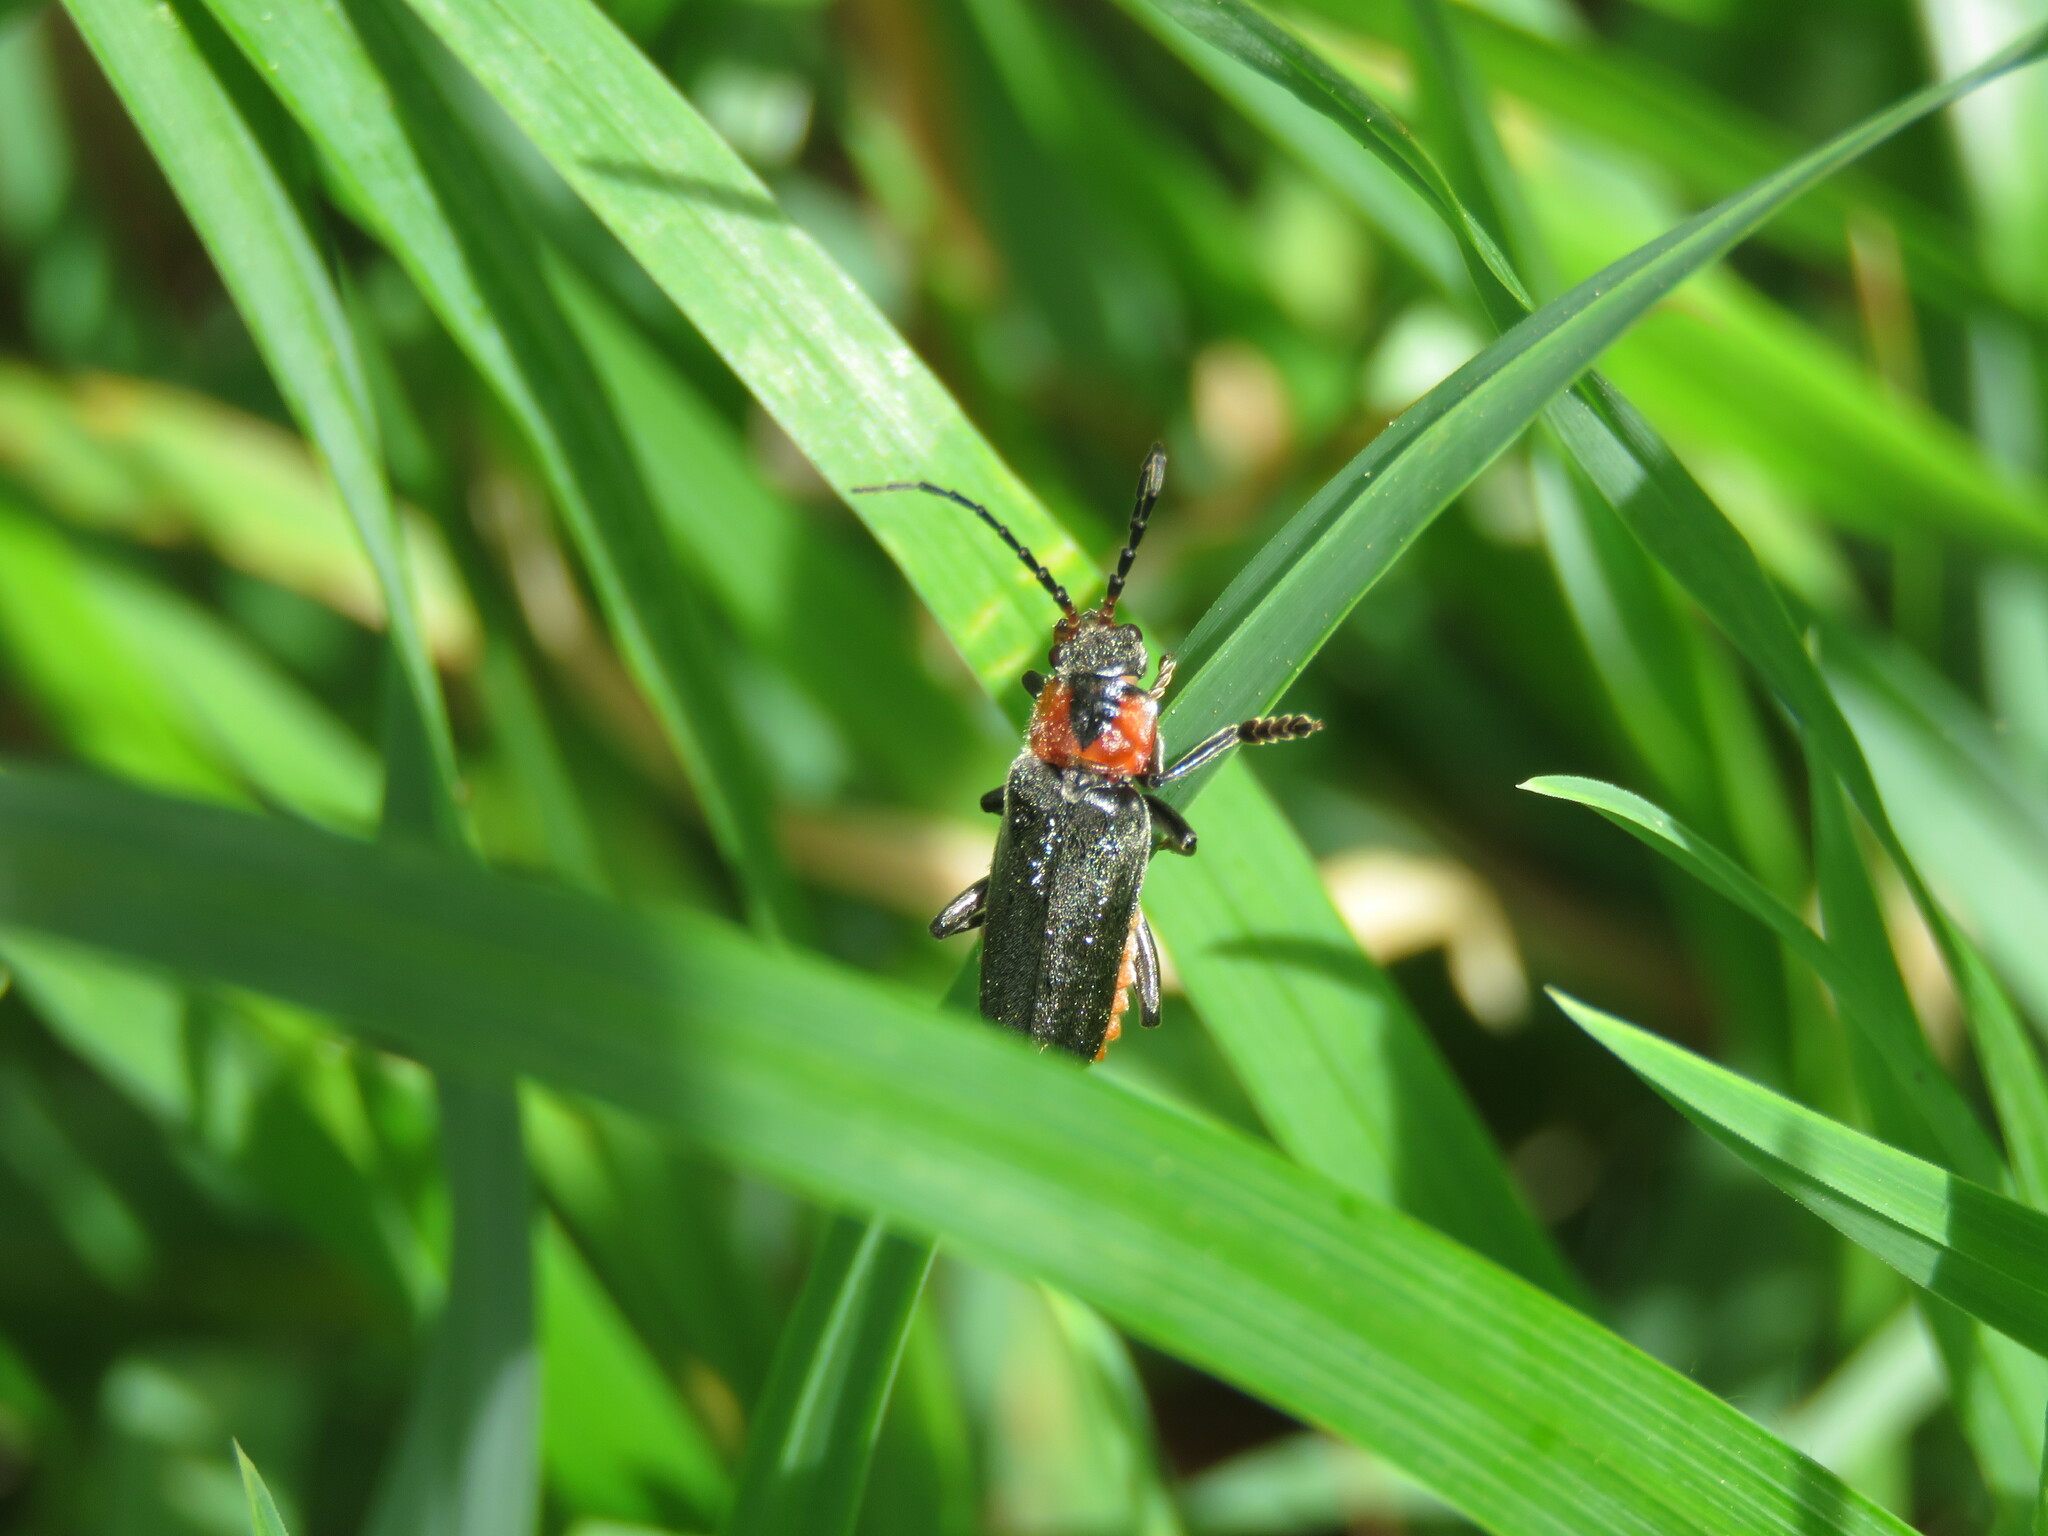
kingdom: Animalia
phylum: Arthropoda
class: Insecta
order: Coleoptera
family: Cantharidae
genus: Cantharis
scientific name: Cantharis reichei
